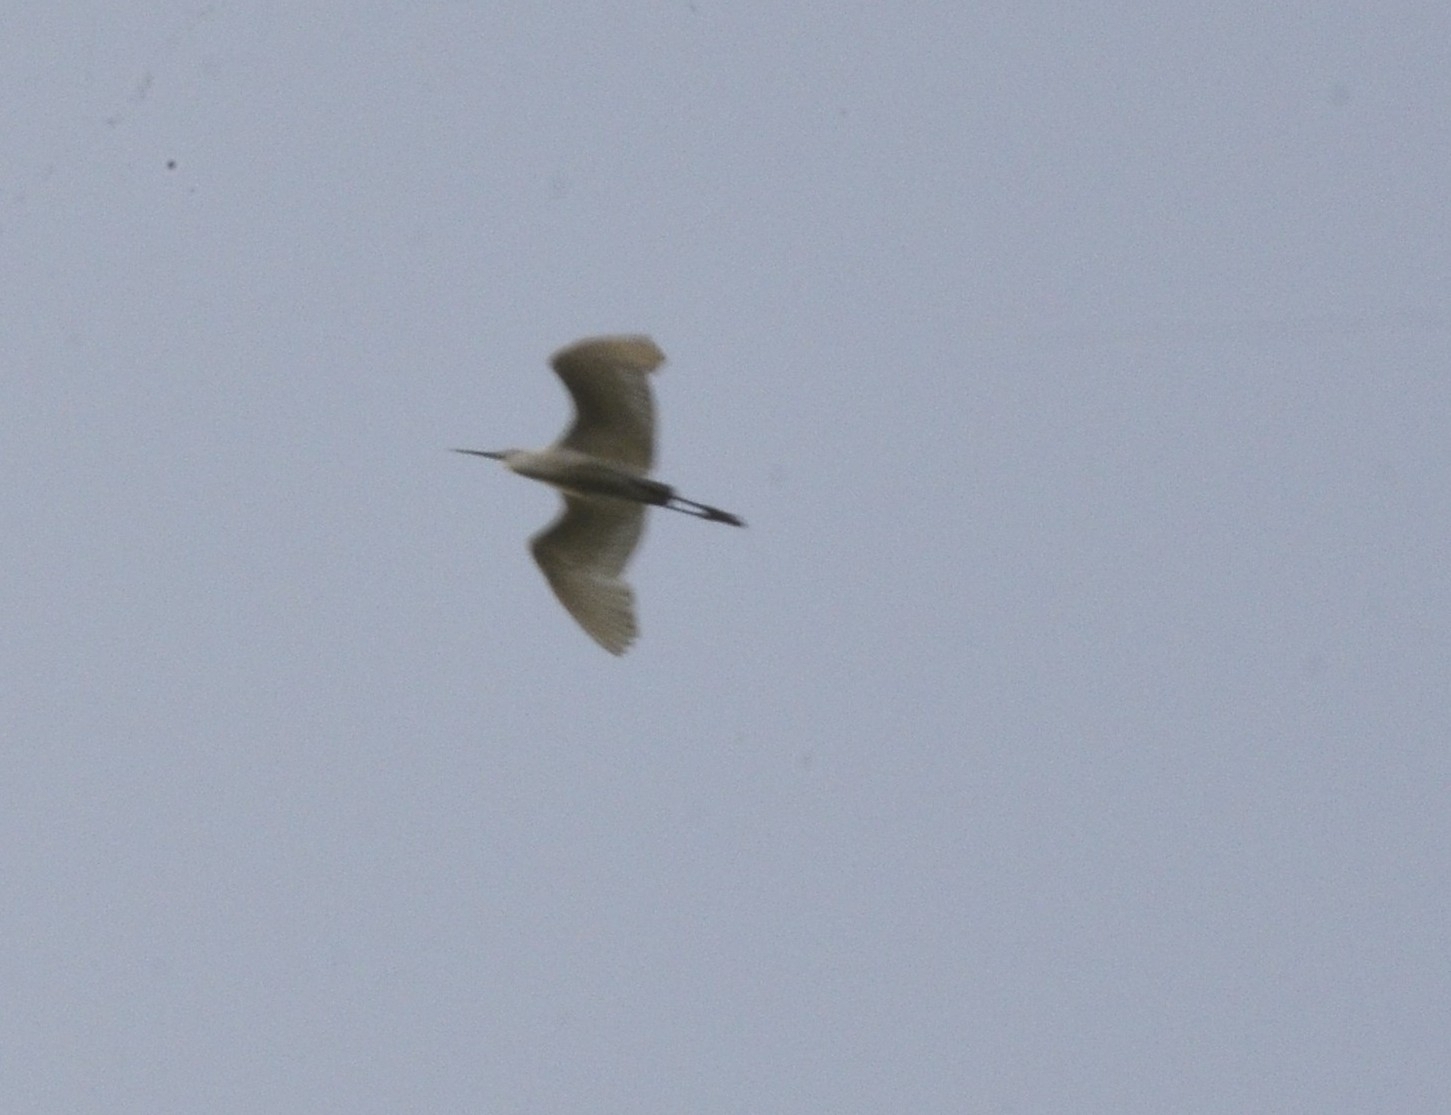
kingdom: Animalia
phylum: Chordata
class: Aves
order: Pelecaniformes
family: Ardeidae
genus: Egretta
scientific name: Egretta garzetta
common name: Little egret
